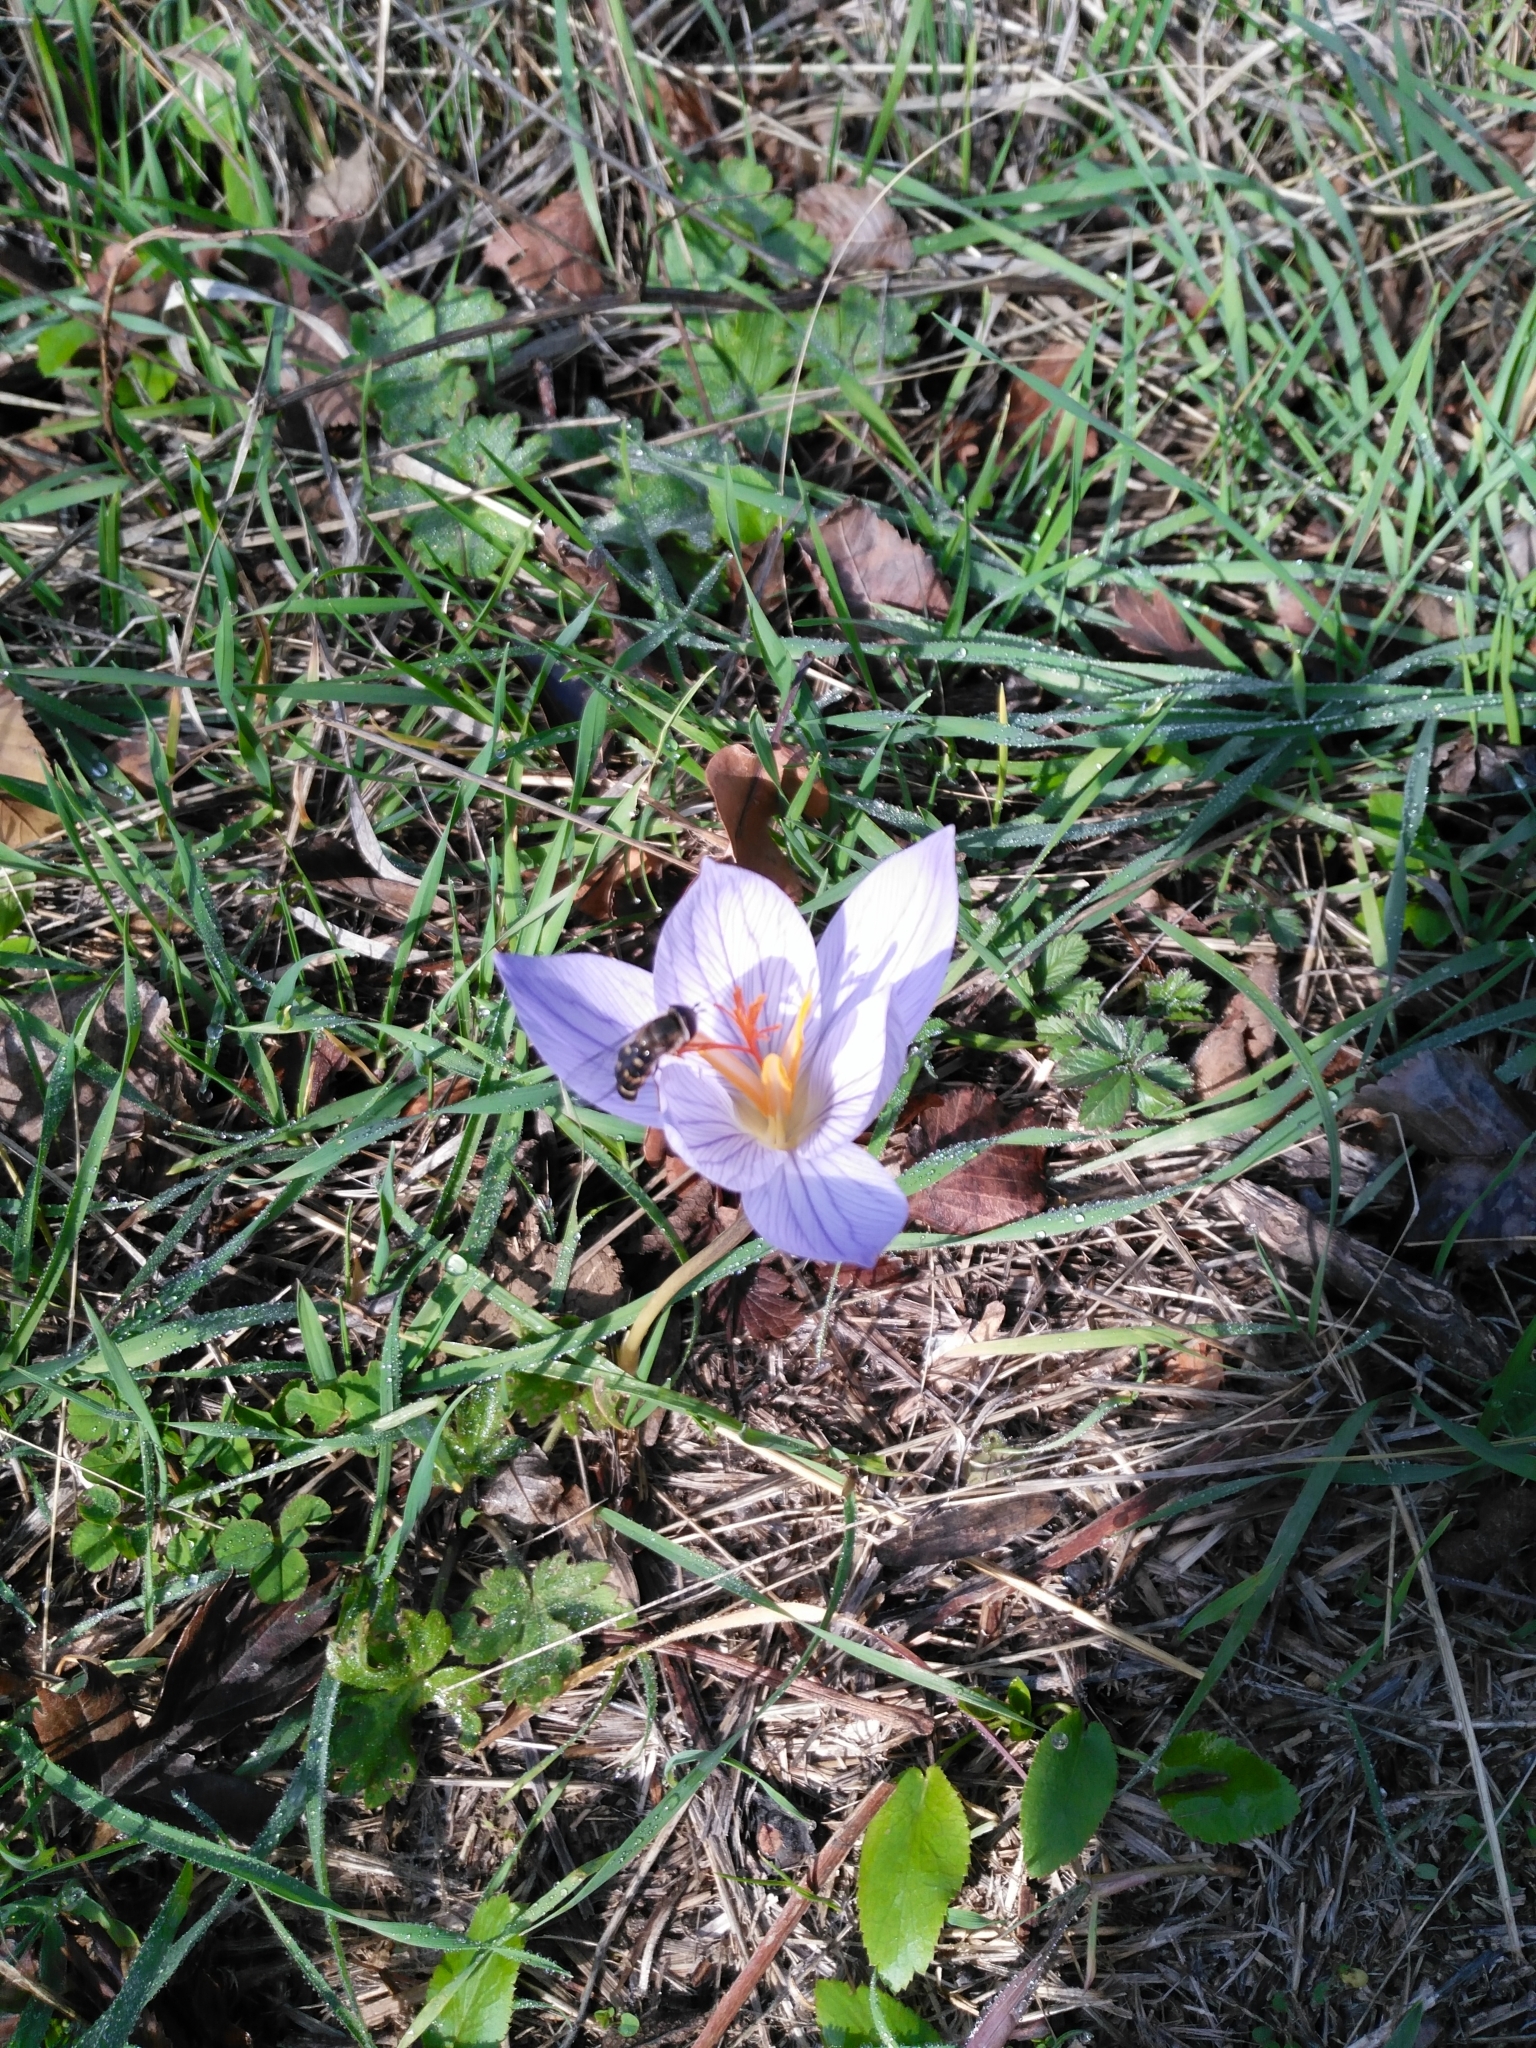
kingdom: Plantae
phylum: Tracheophyta
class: Liliopsida
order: Asparagales
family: Iridaceae
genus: Crocus
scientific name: Crocus speciosus
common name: Bieberstein's crocus
